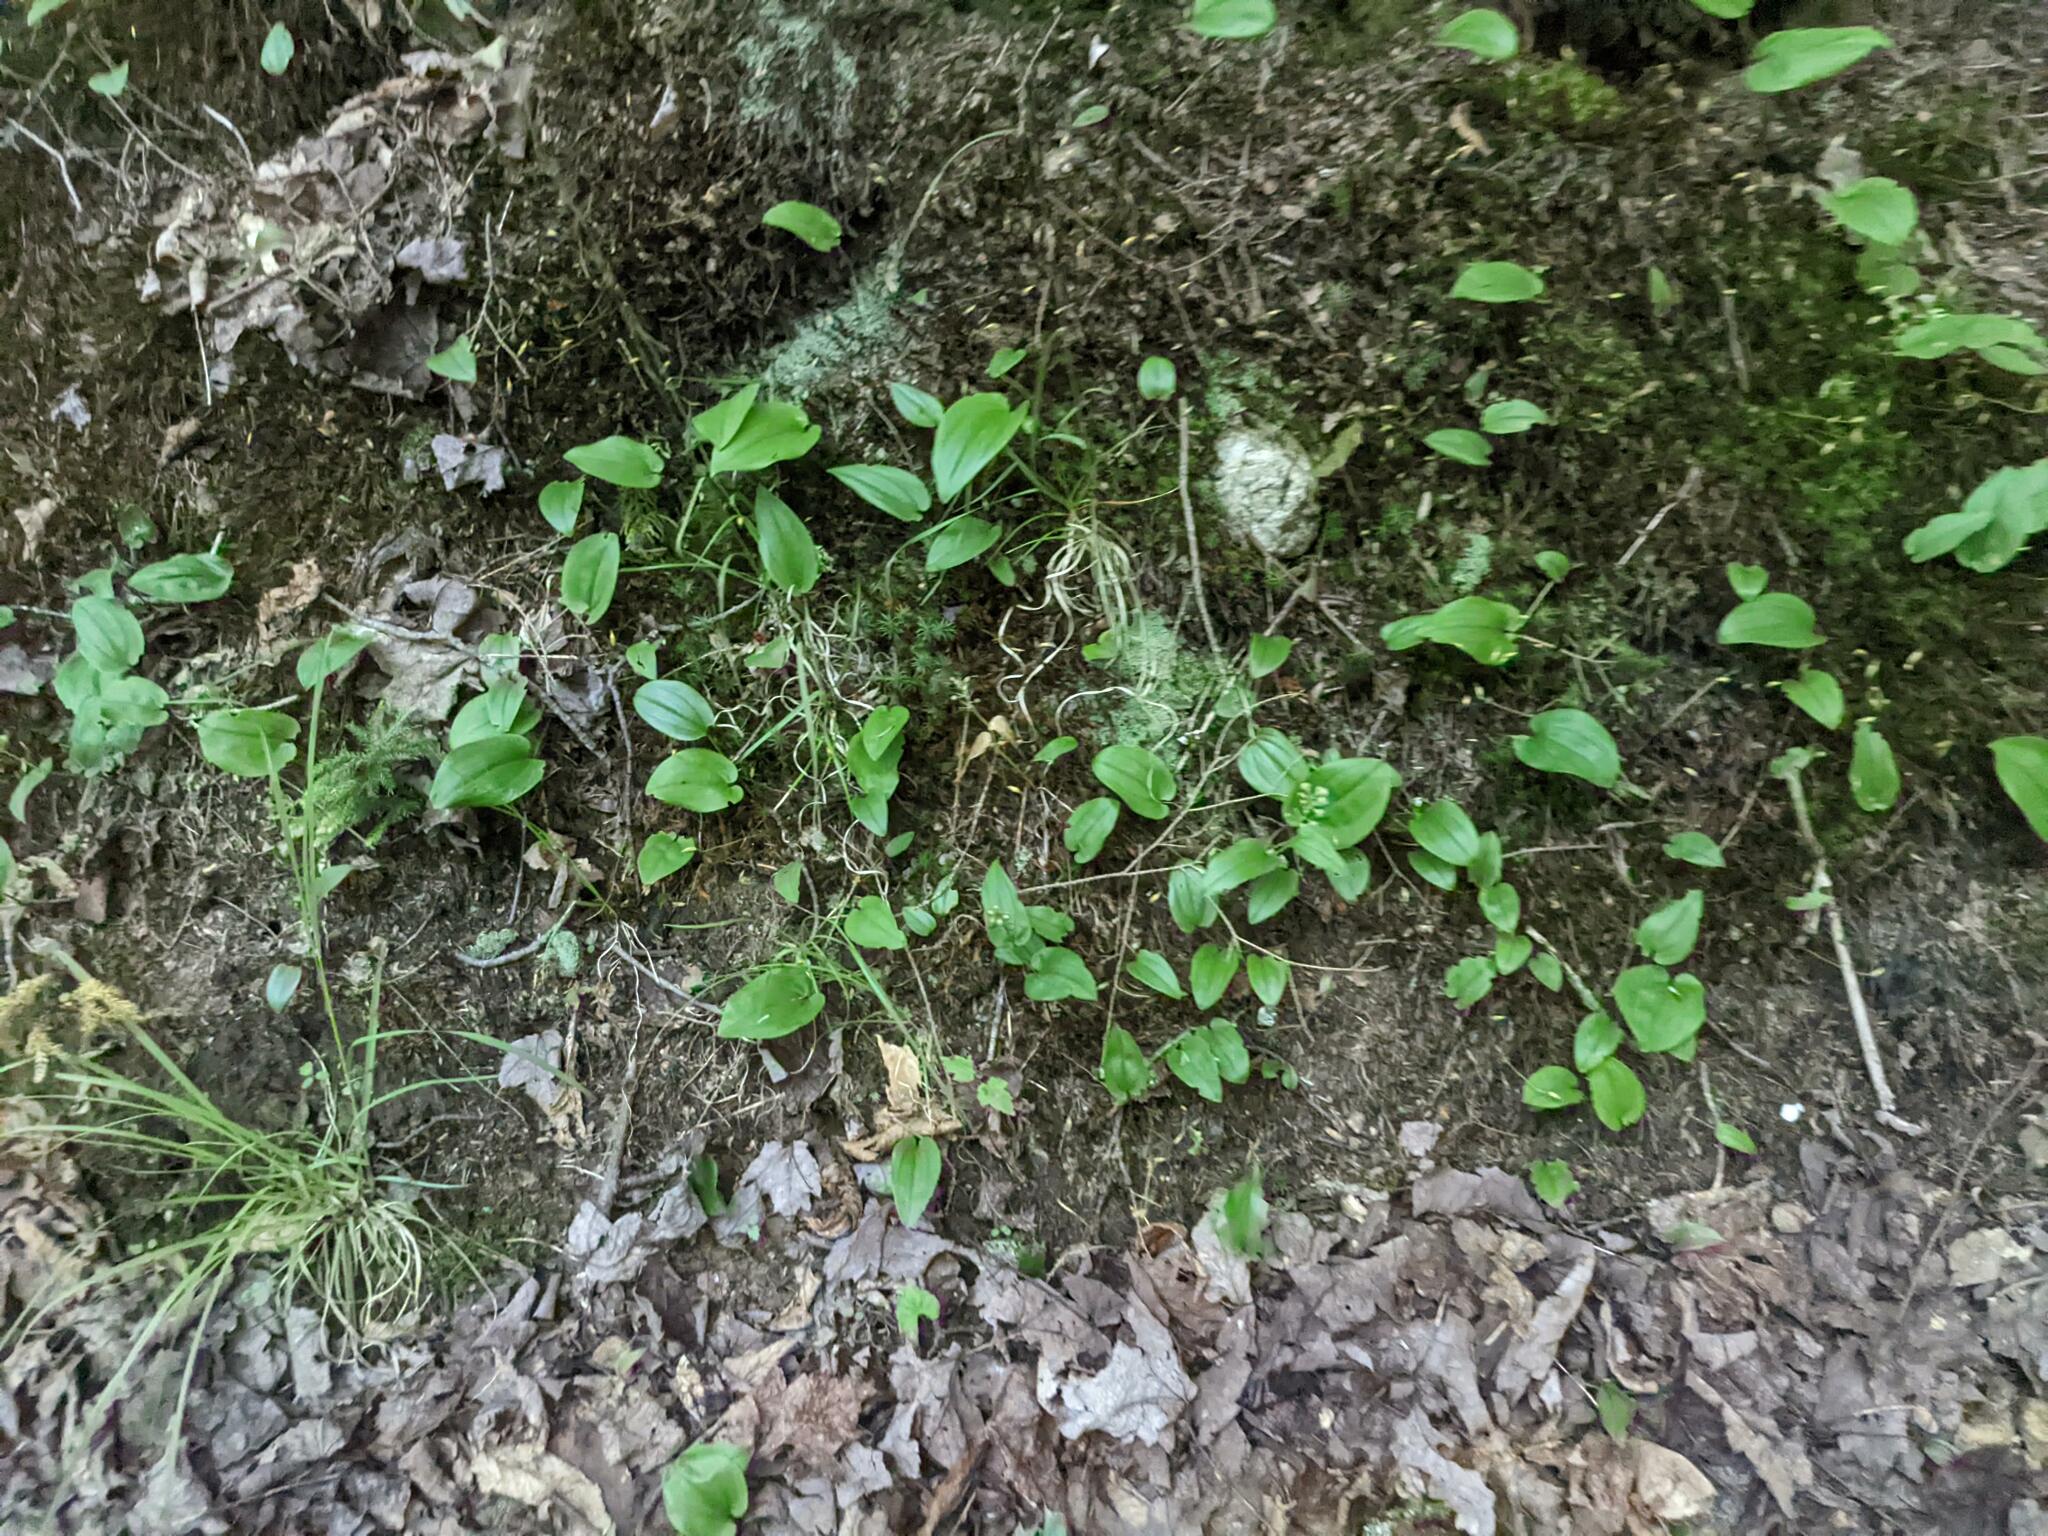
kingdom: Plantae
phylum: Tracheophyta
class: Liliopsida
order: Asparagales
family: Asparagaceae
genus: Maianthemum
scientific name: Maianthemum canadense
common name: False lily-of-the-valley
